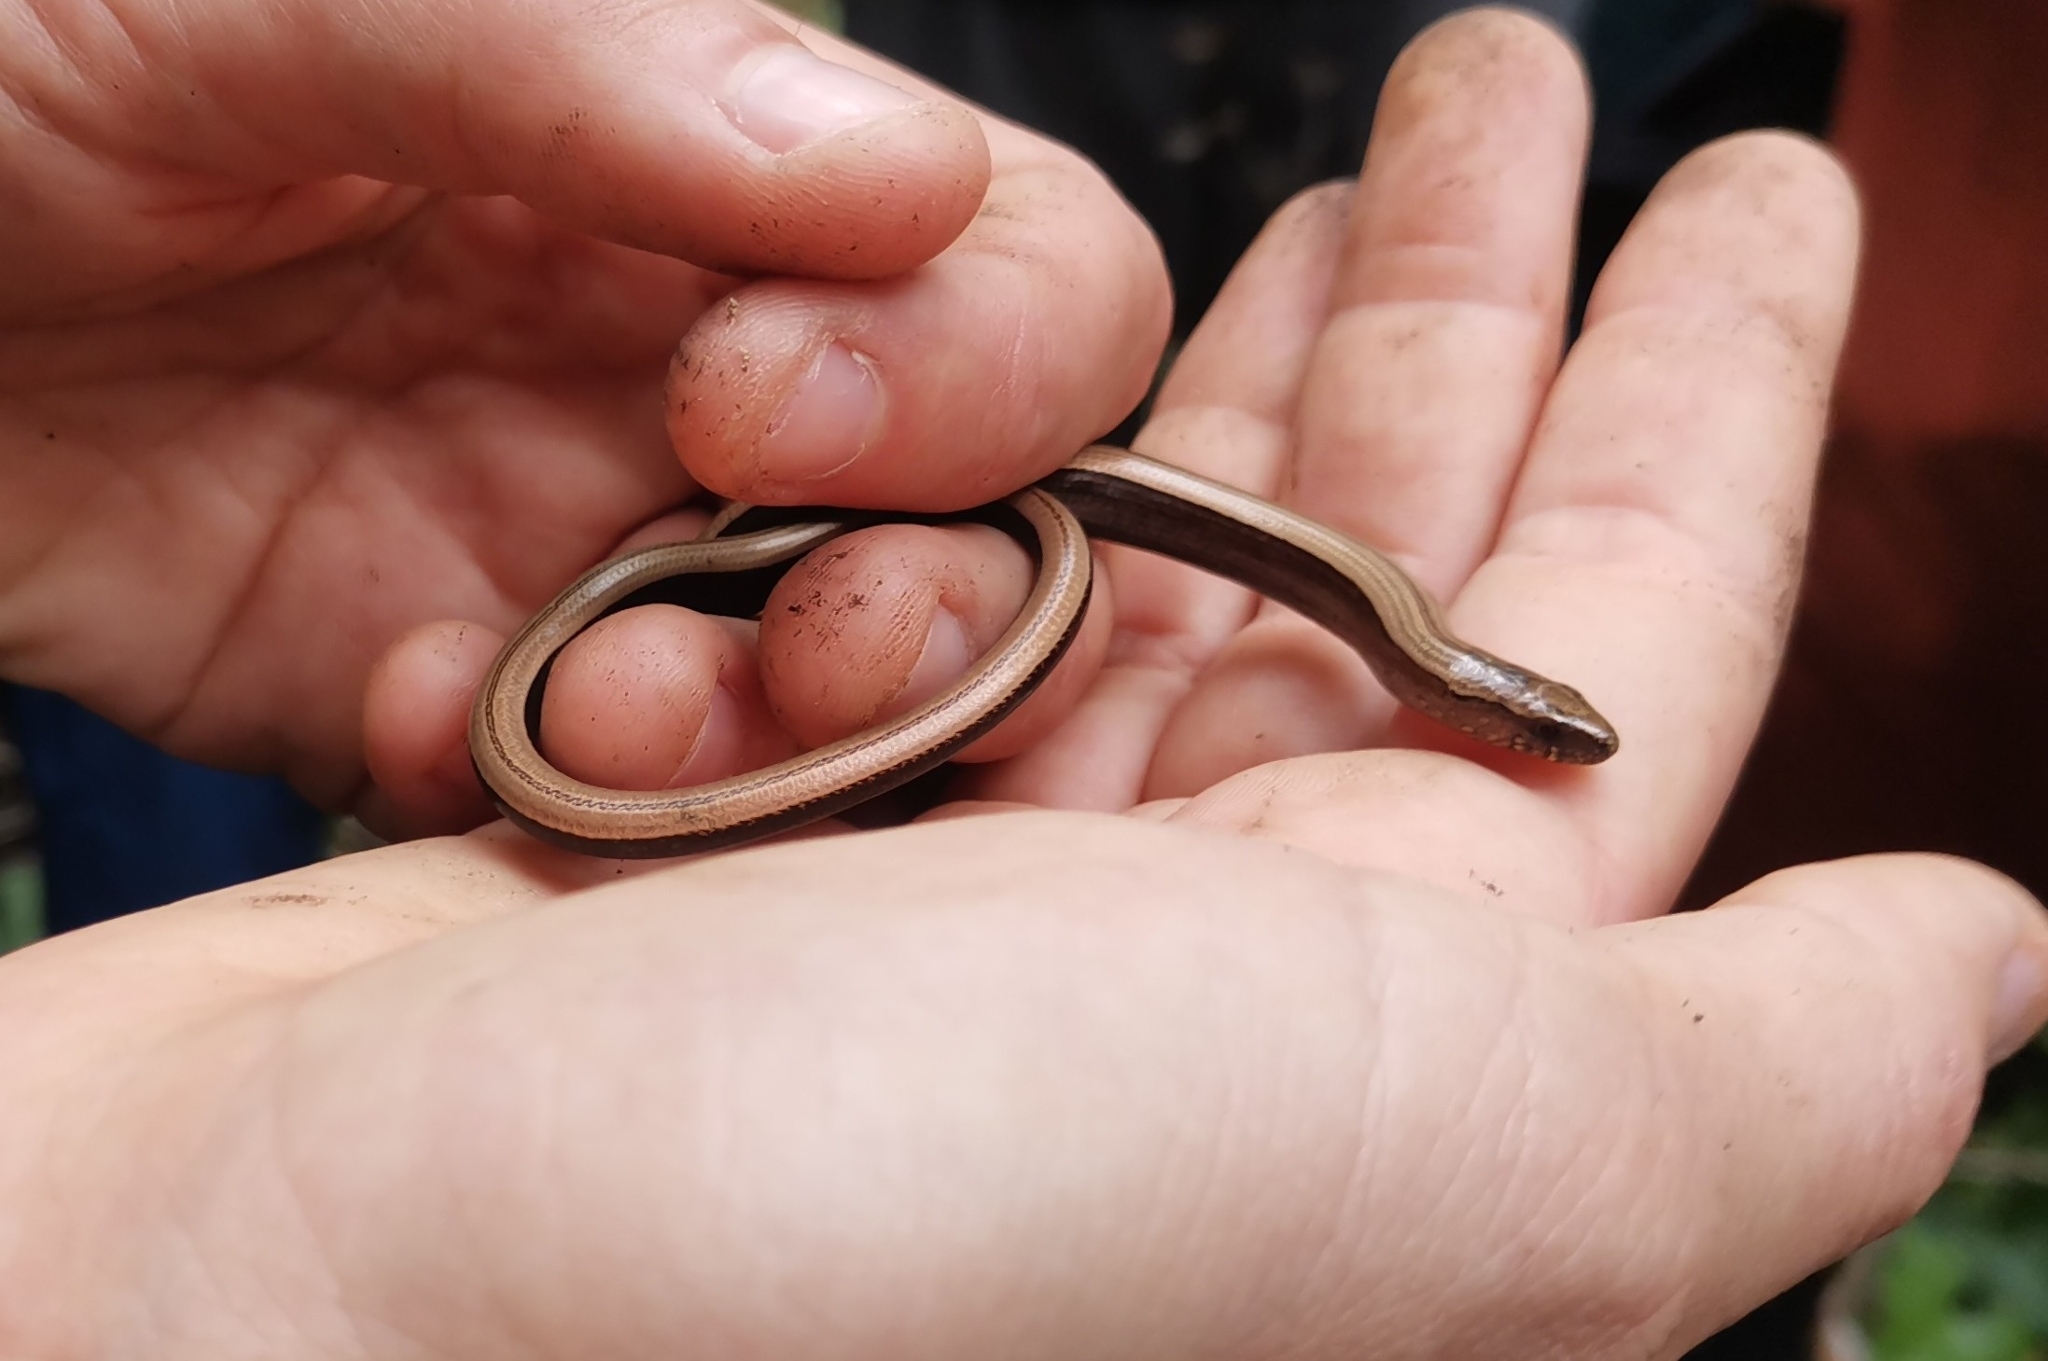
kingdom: Animalia
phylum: Chordata
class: Squamata
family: Anguidae
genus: Anguis
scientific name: Anguis colchica
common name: Slow worm
